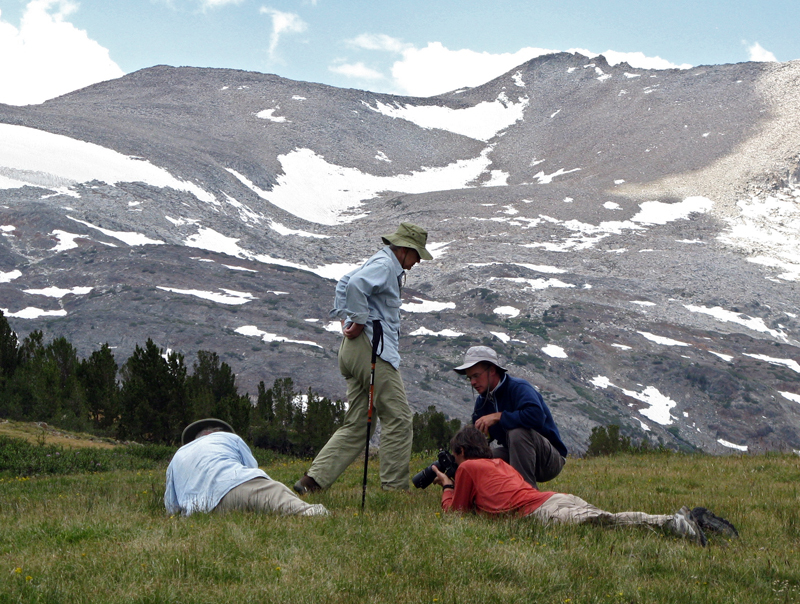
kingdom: Plantae
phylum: Tracheophyta
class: Magnoliopsida
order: Gentianales
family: Gentianaceae
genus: Comastoma
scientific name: Comastoma tenellum
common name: Dane's dwarf gentian
